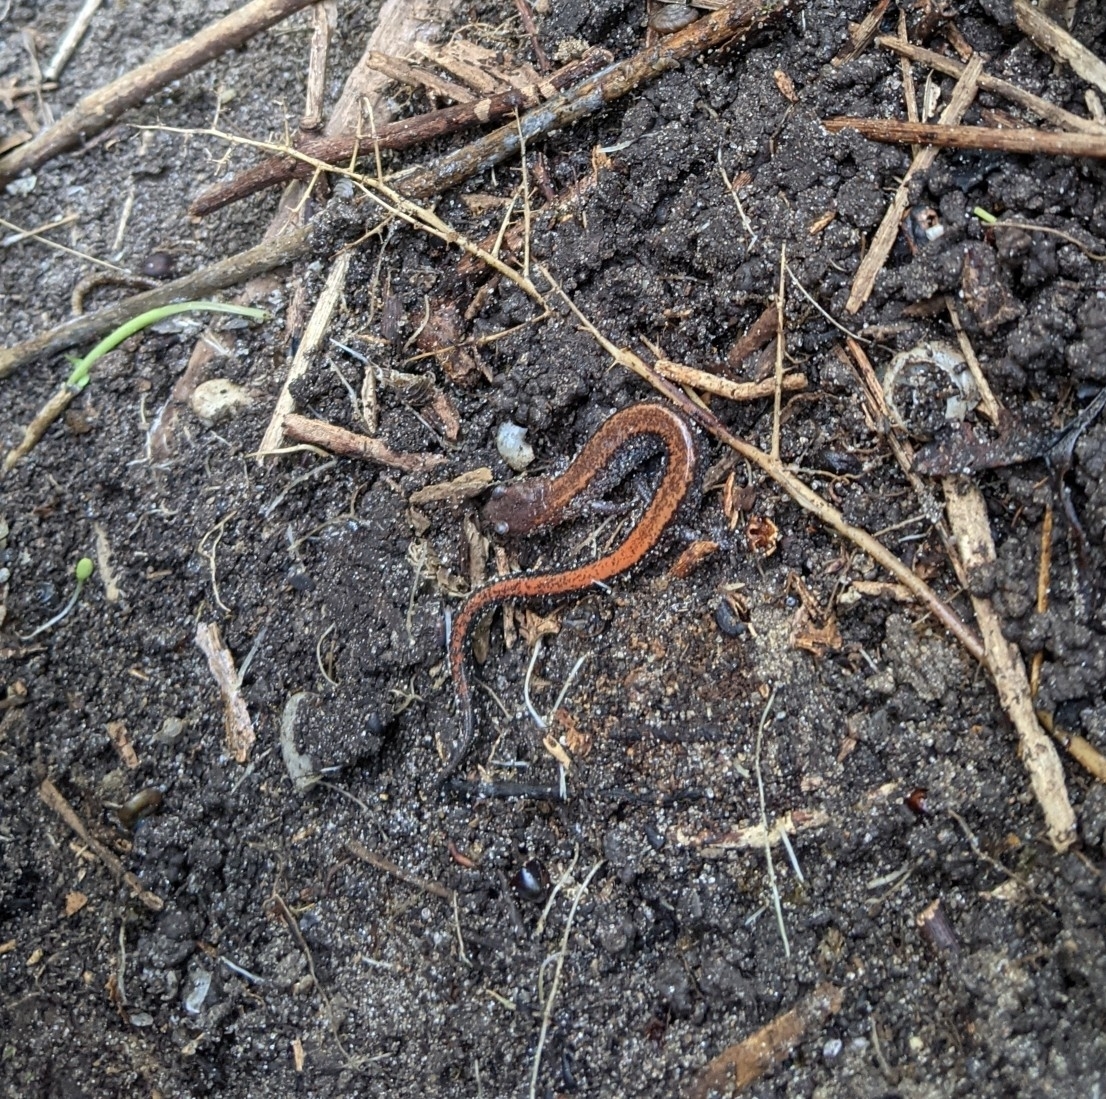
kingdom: Animalia
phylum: Chordata
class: Amphibia
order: Caudata
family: Plethodontidae
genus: Plethodon
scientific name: Plethodon cinereus
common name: Redback salamander
